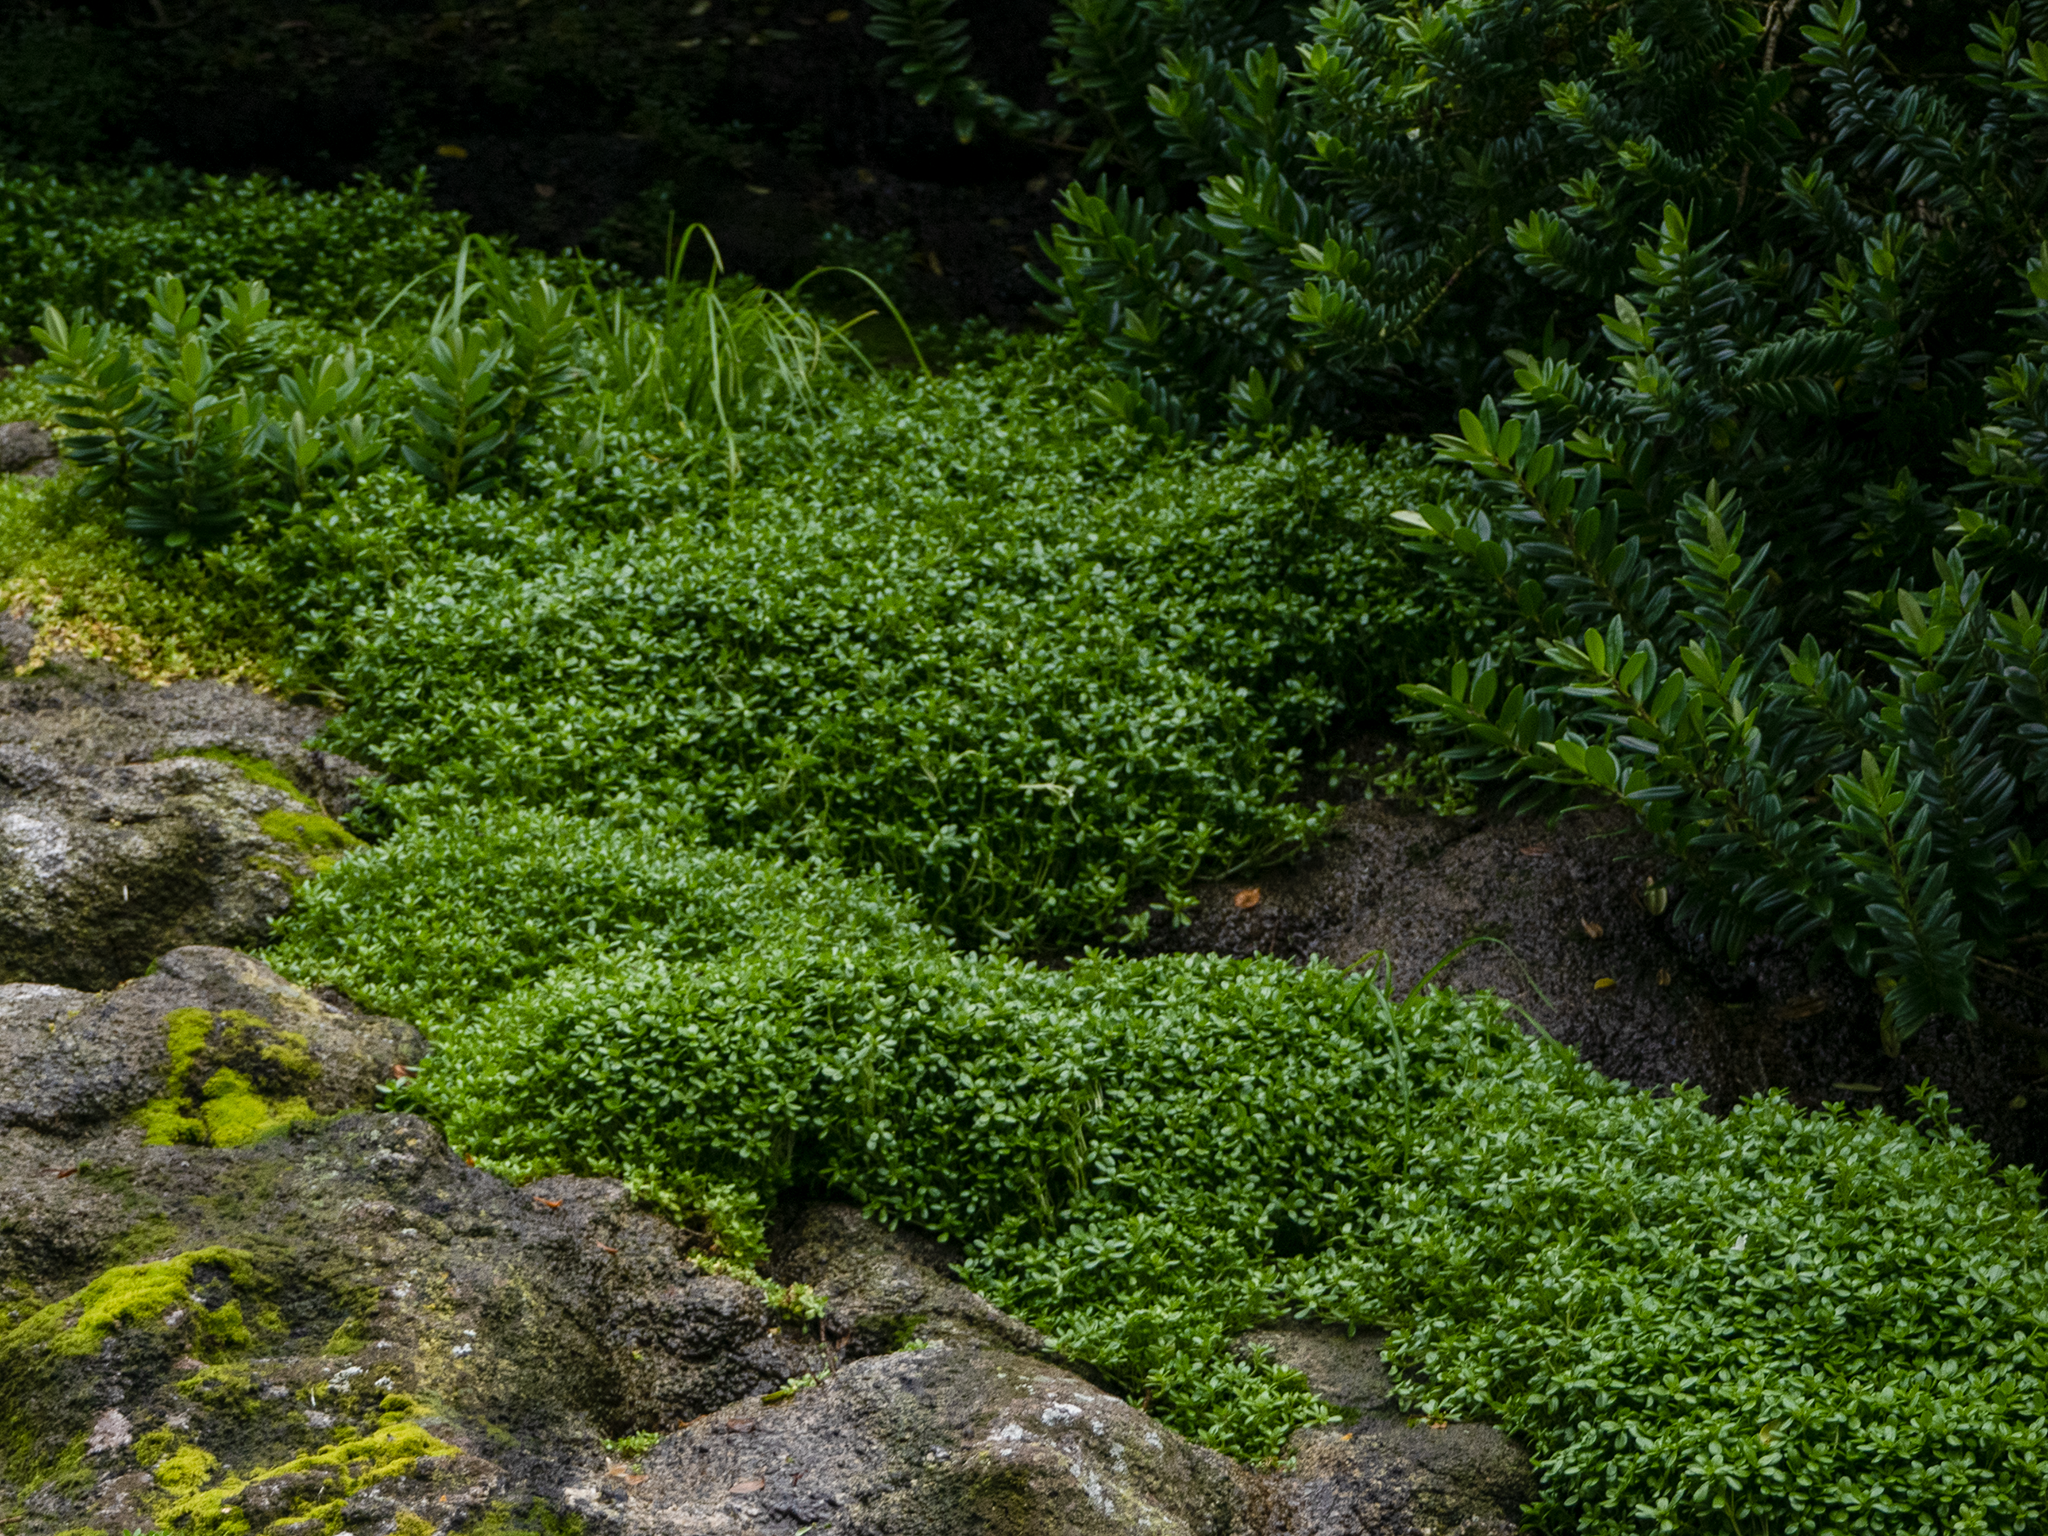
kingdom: Plantae
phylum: Tracheophyta
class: Magnoliopsida
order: Lamiales
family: Plantaginaceae
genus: Callitriche
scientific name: Callitriche antarctica
